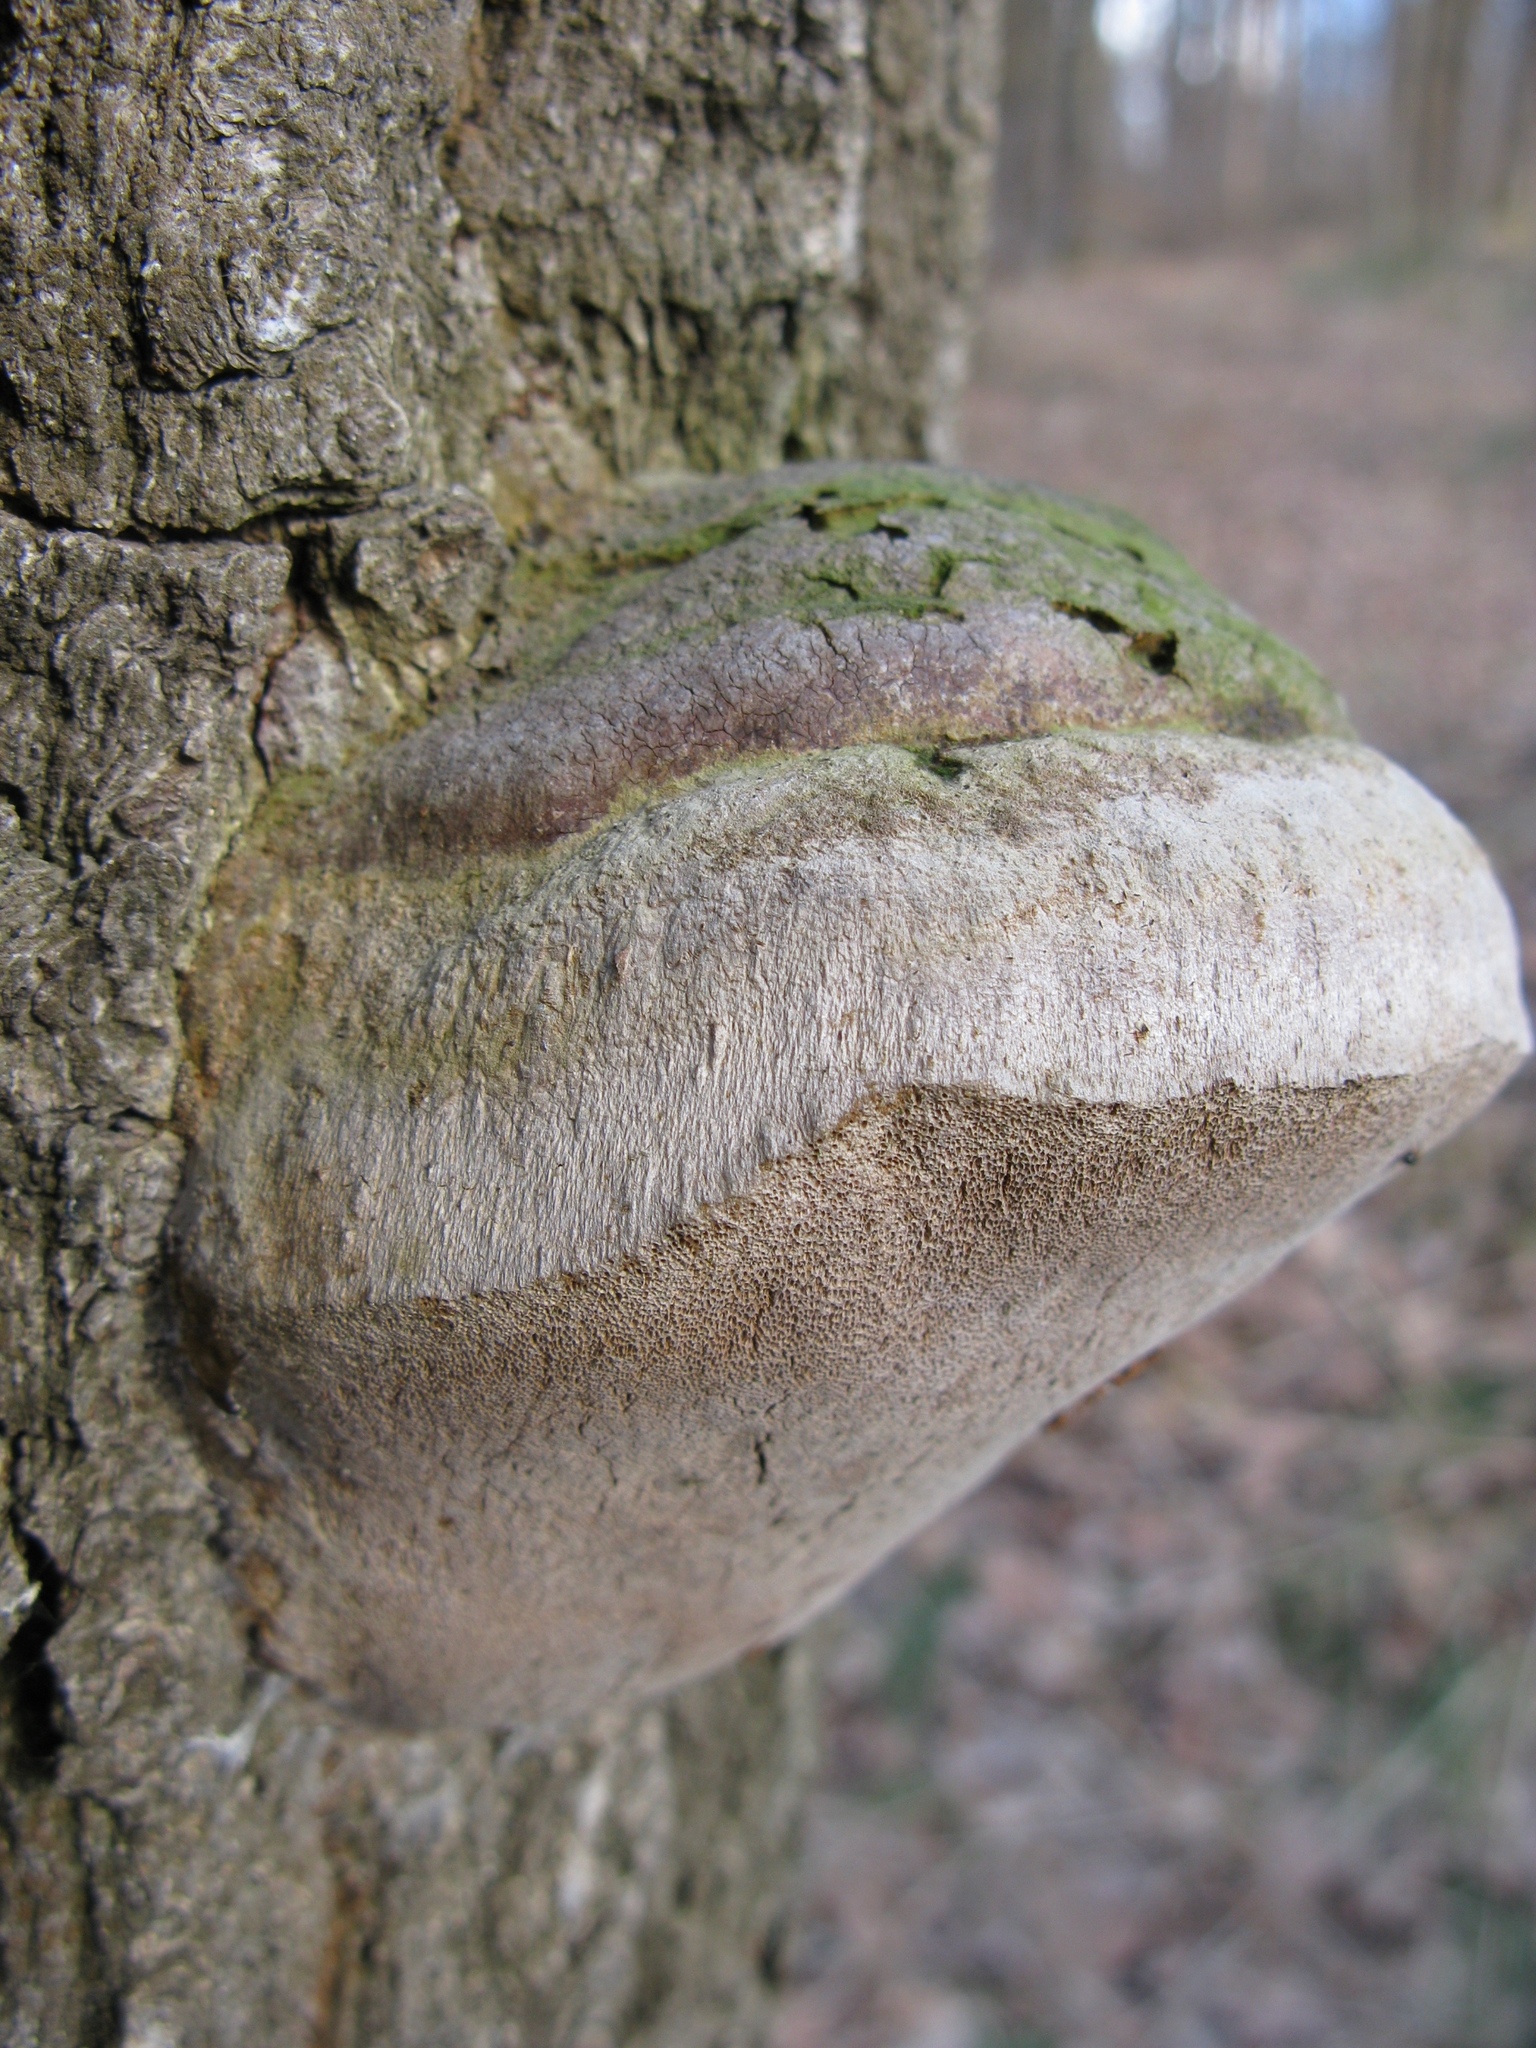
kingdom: Fungi
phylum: Basidiomycota
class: Agaricomycetes
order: Hymenochaetales
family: Hymenochaetaceae
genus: Phellinus
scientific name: Phellinus igniarius
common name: Willow bracket
